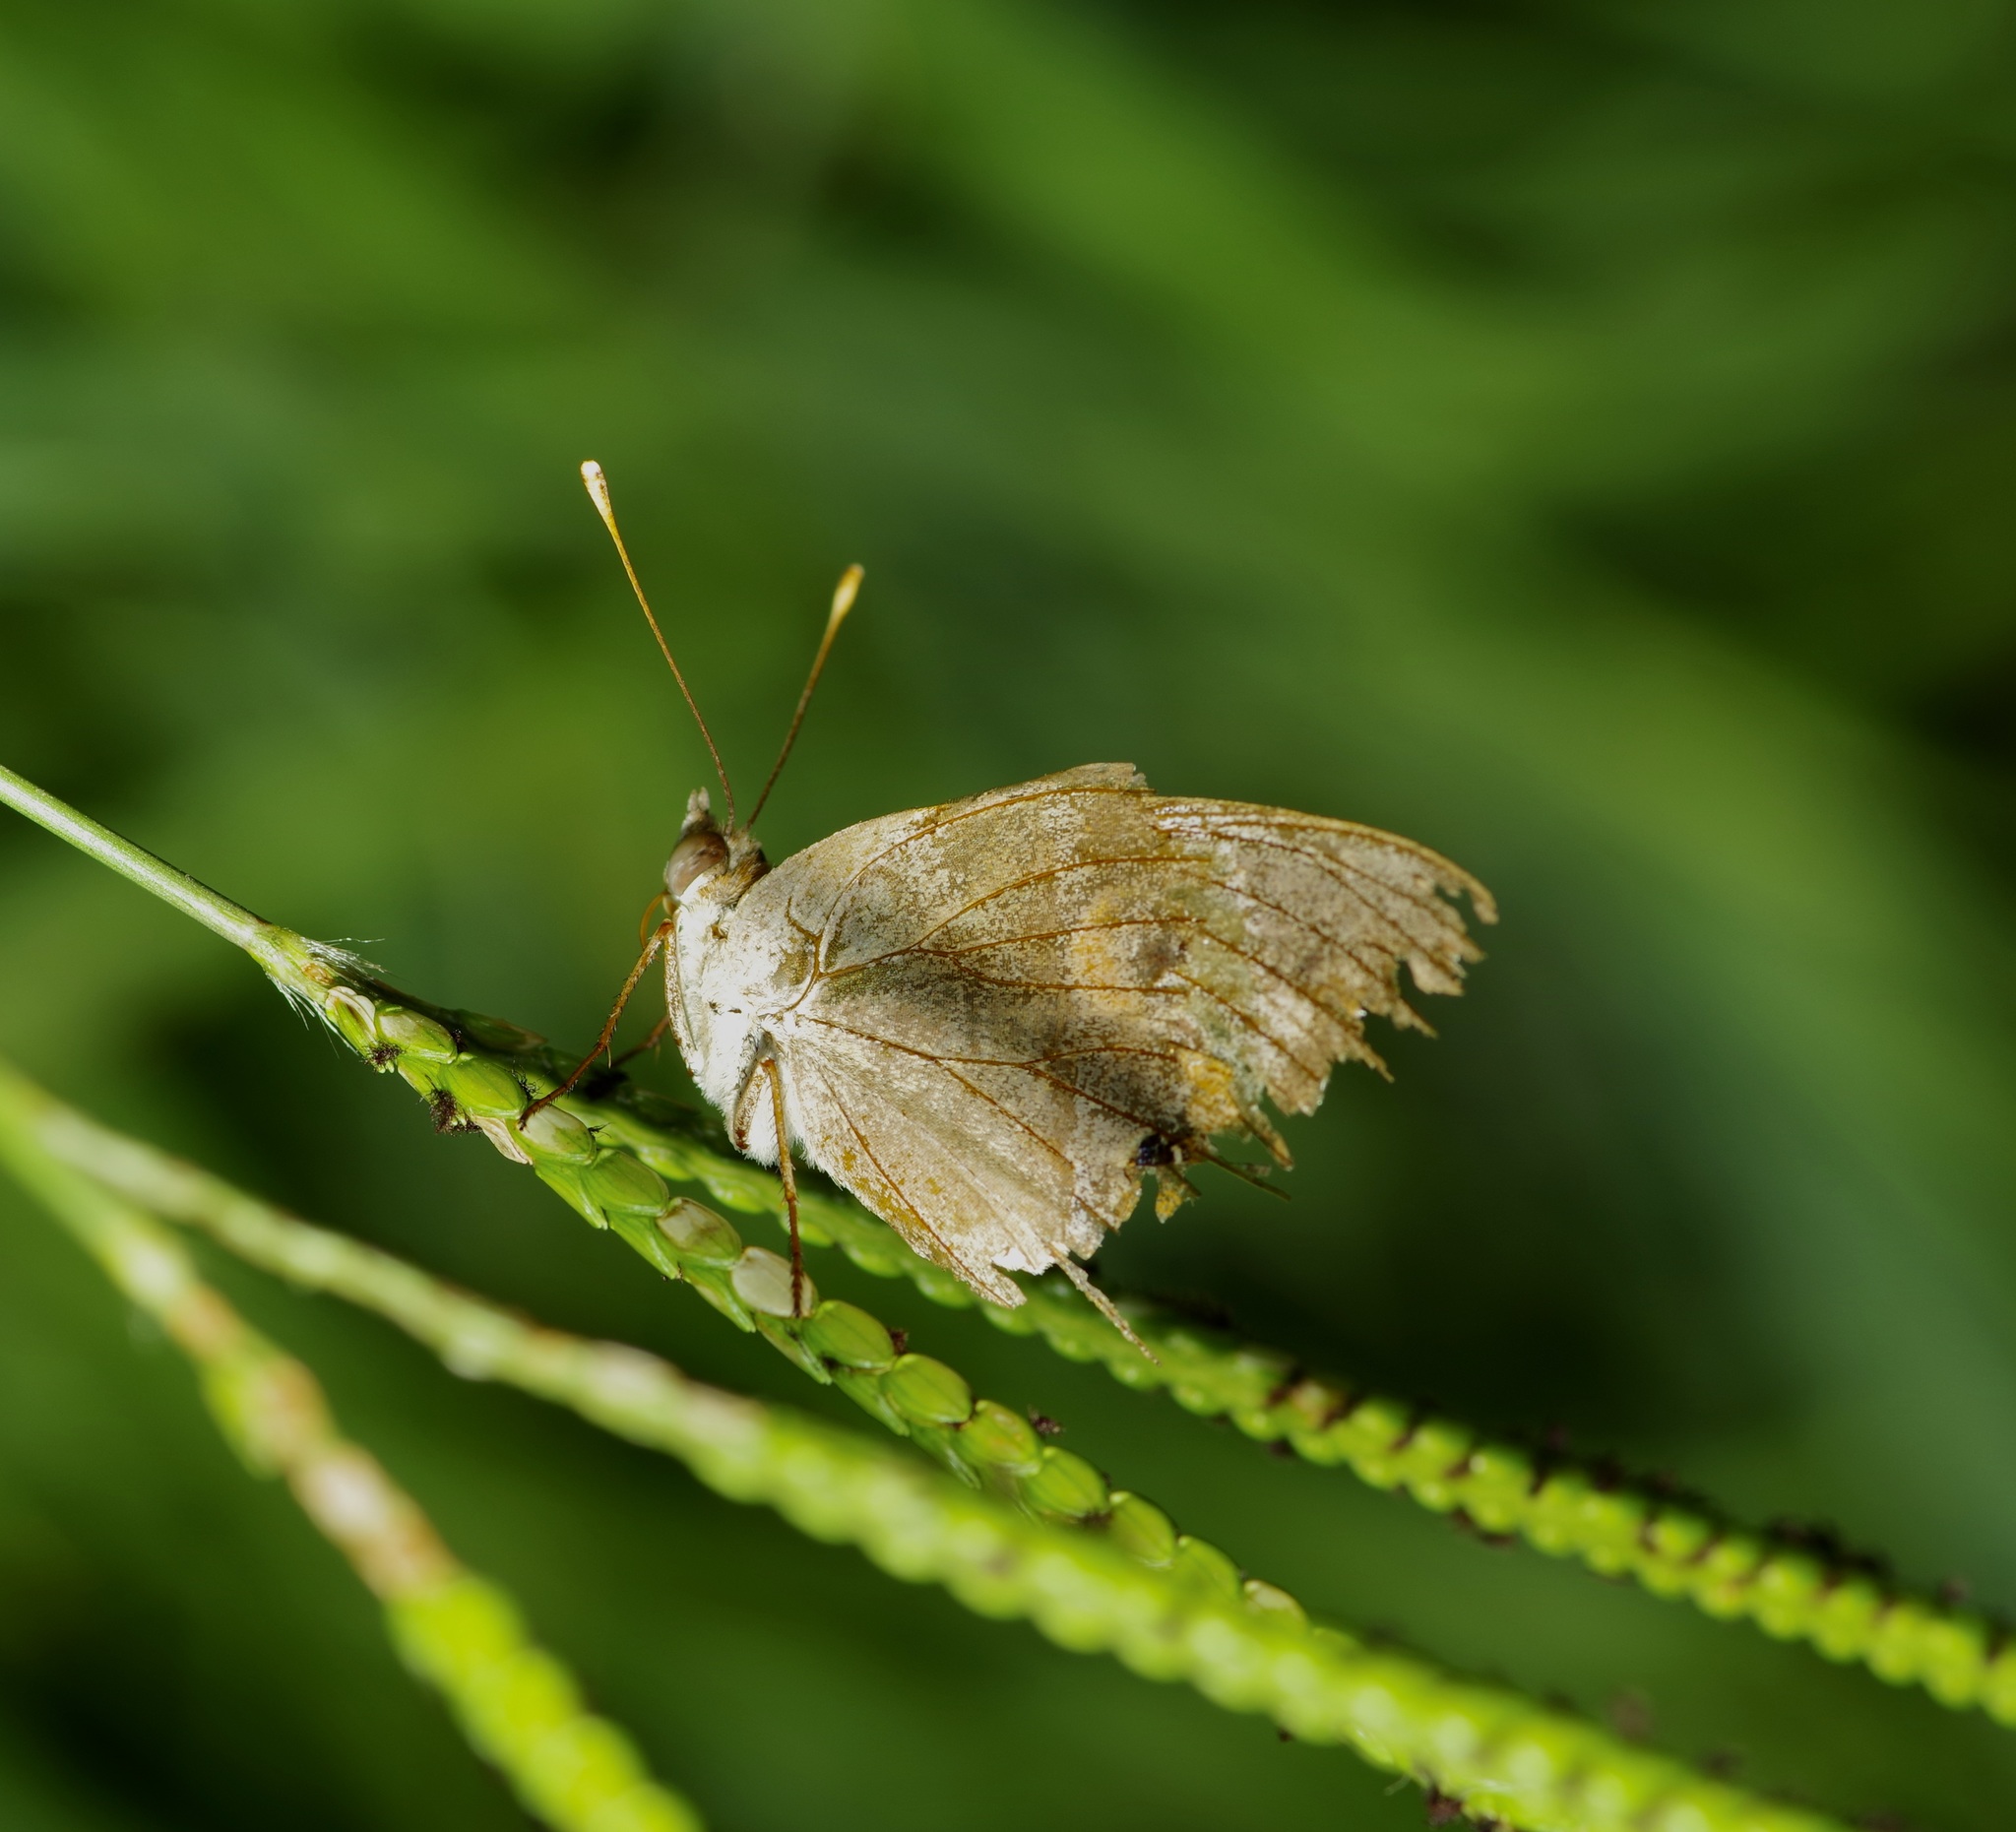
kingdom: Animalia
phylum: Arthropoda
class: Insecta
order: Lepidoptera
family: Nymphalidae
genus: Junonia
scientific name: Junonia coenia
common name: Common buckeye
